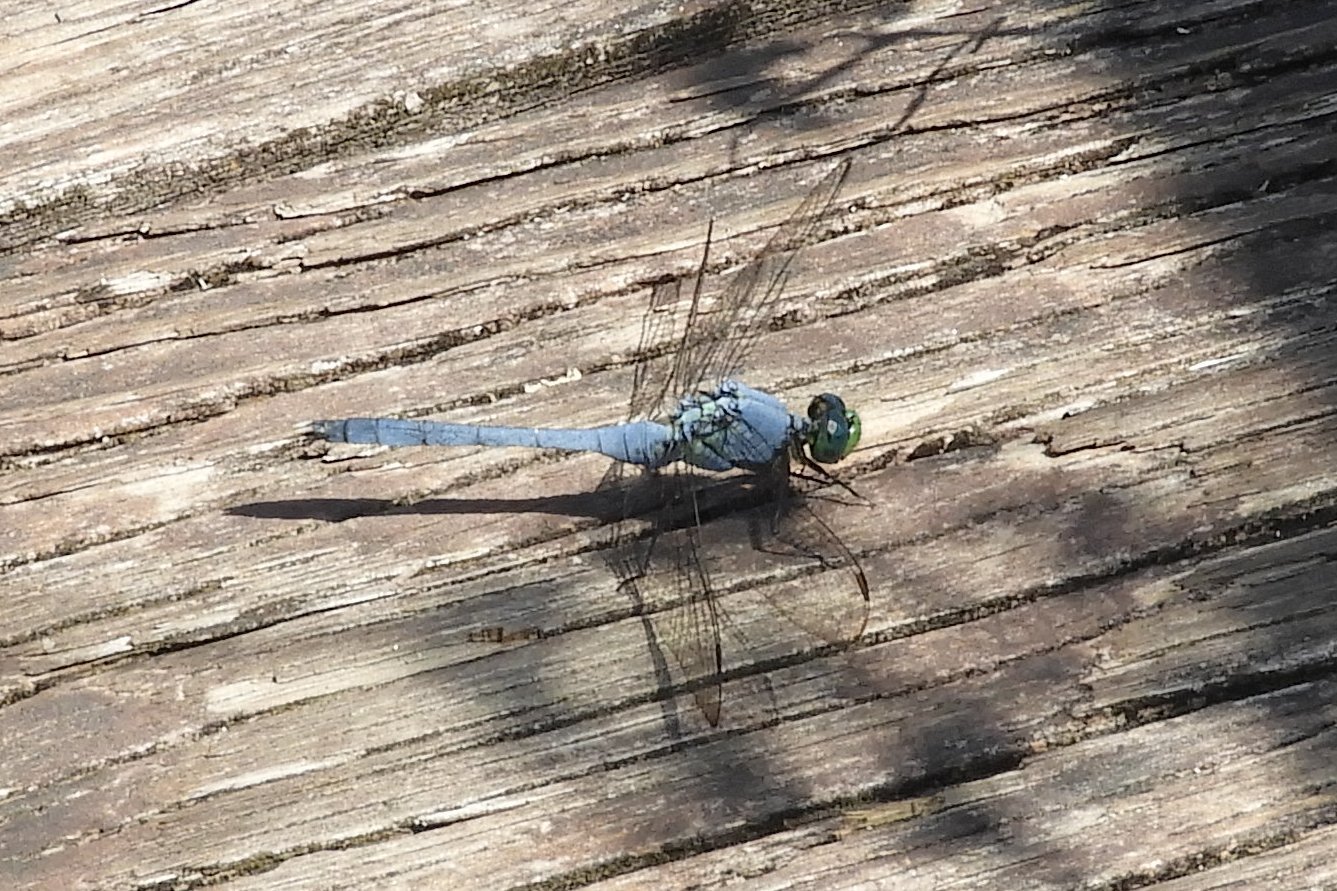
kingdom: Animalia
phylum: Arthropoda
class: Insecta
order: Odonata
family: Libellulidae
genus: Erythemis
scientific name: Erythemis simplicicollis
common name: Eastern pondhawk
